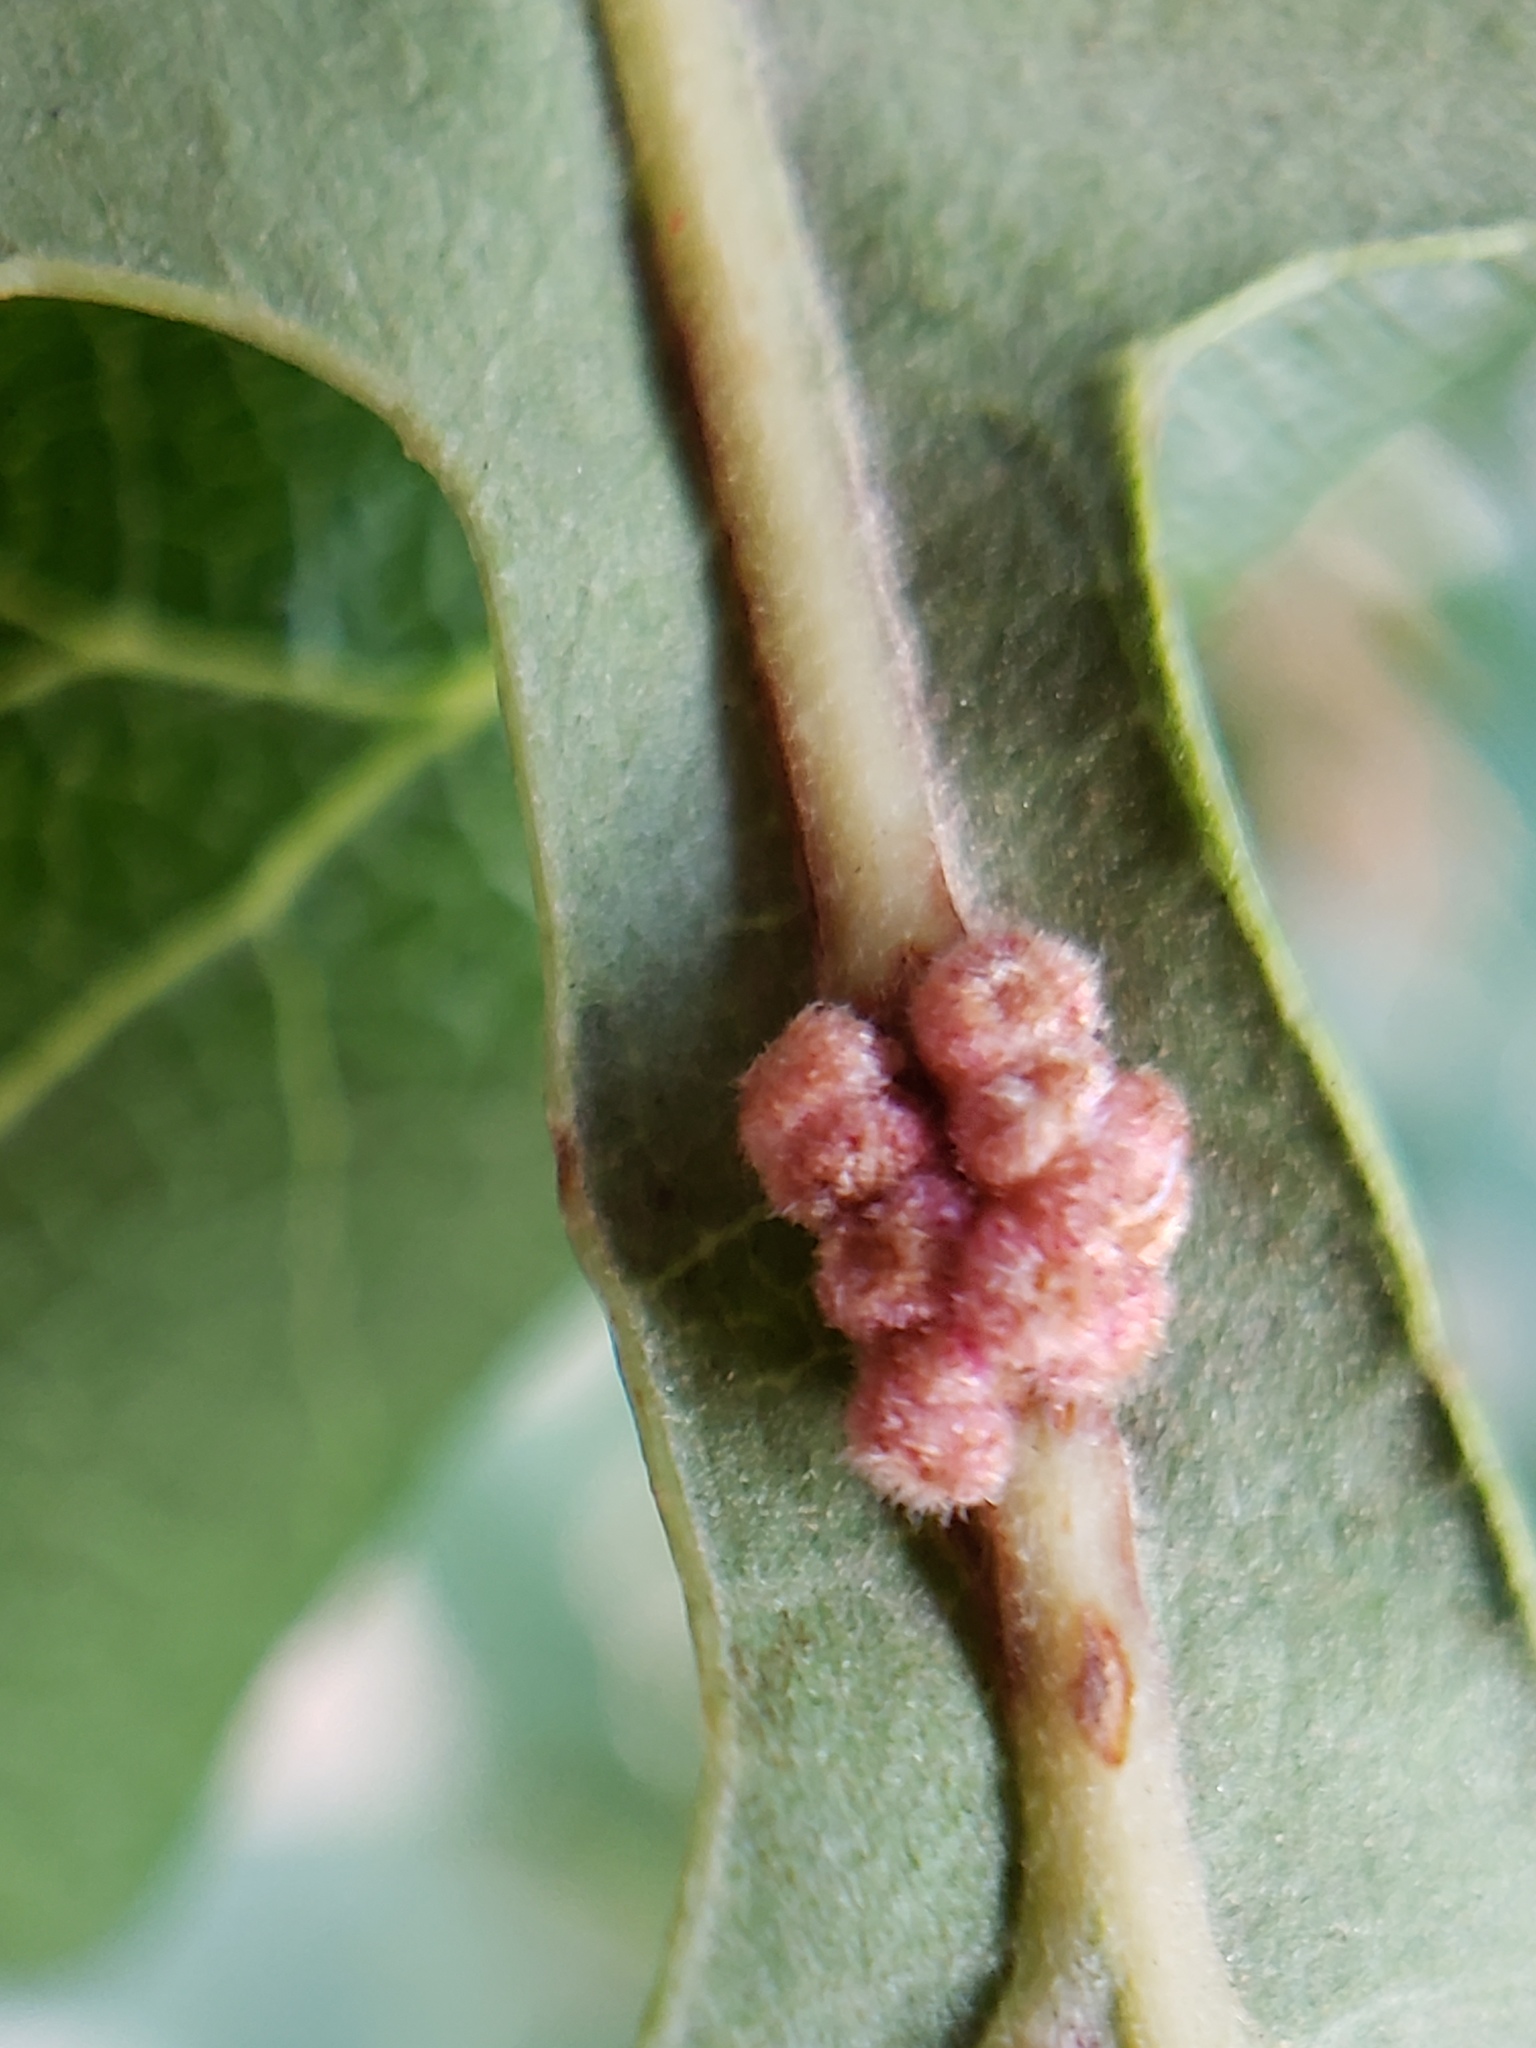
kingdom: Animalia
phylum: Arthropoda
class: Insecta
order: Hymenoptera
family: Cynipidae
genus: Andricus
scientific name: Andricus
